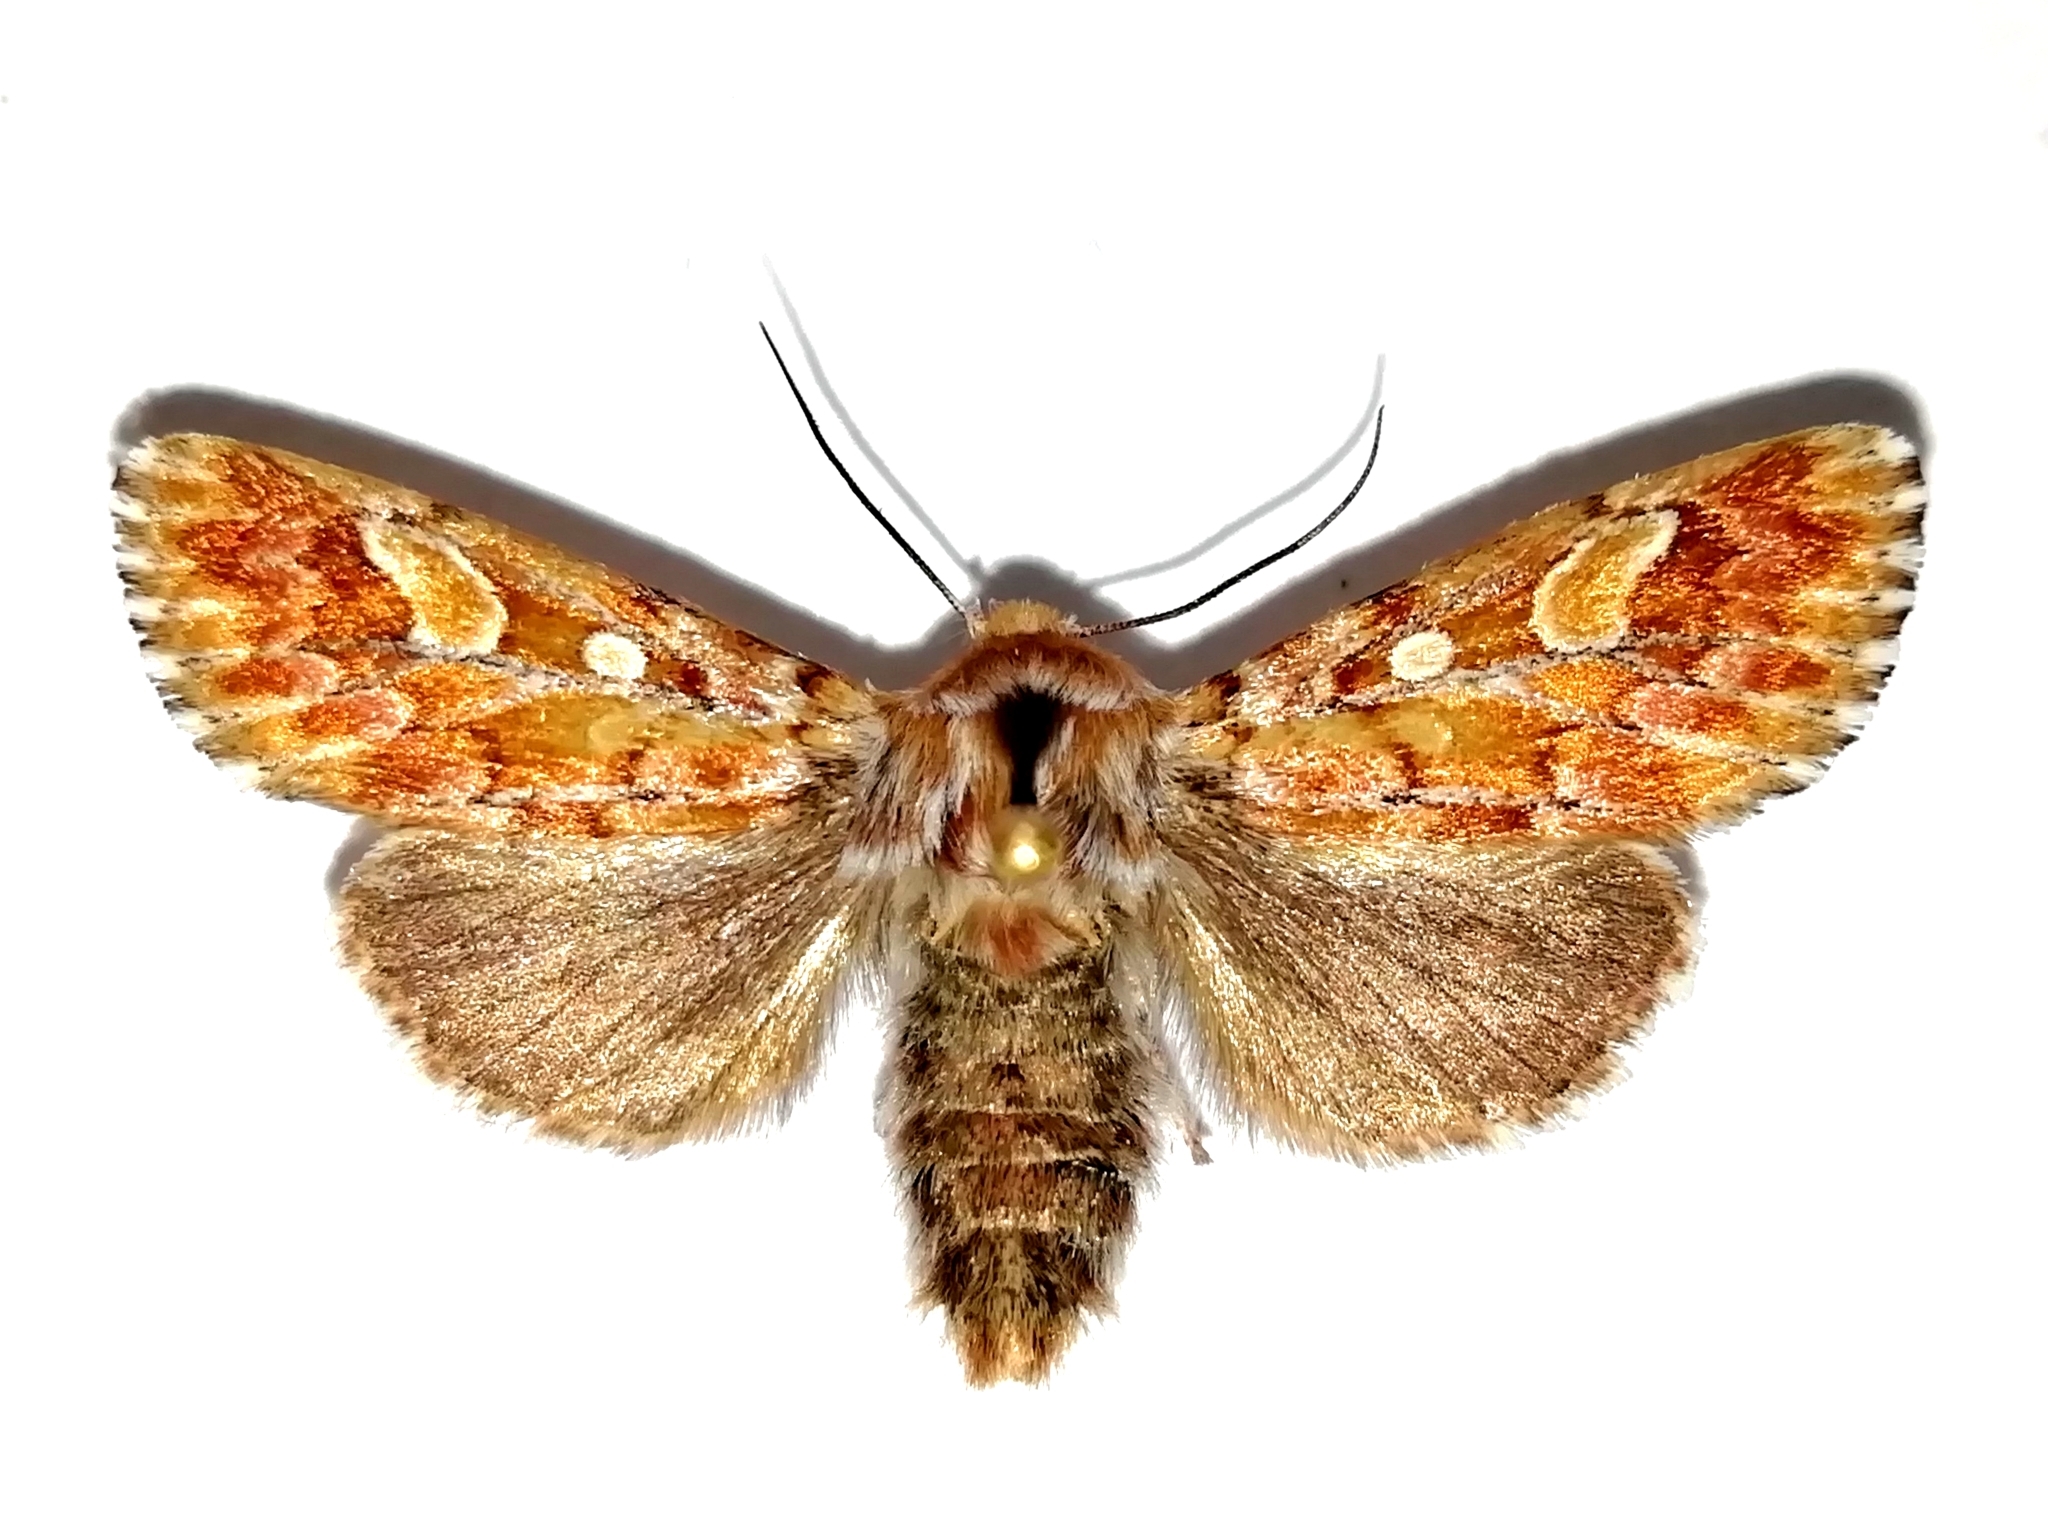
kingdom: Animalia
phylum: Arthropoda
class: Insecta
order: Lepidoptera
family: Noctuidae
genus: Panolis
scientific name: Panolis flammea
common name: Pine beauty
